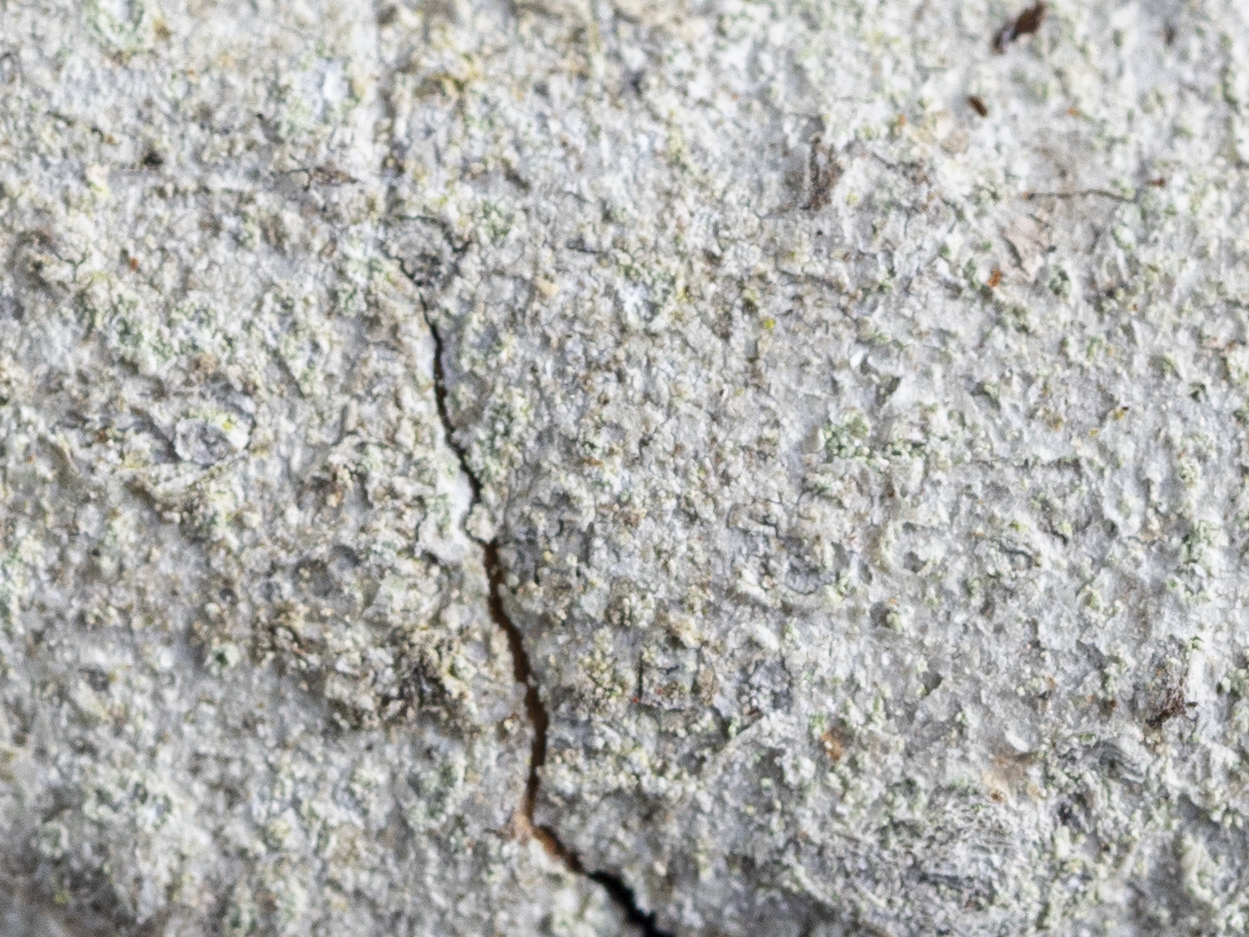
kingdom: Fungi
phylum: Ascomycota
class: Lecanoromycetes
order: Ostropales
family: Phlyctidaceae
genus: Phlyctis
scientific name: Phlyctis argena
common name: Whitewash lichen
